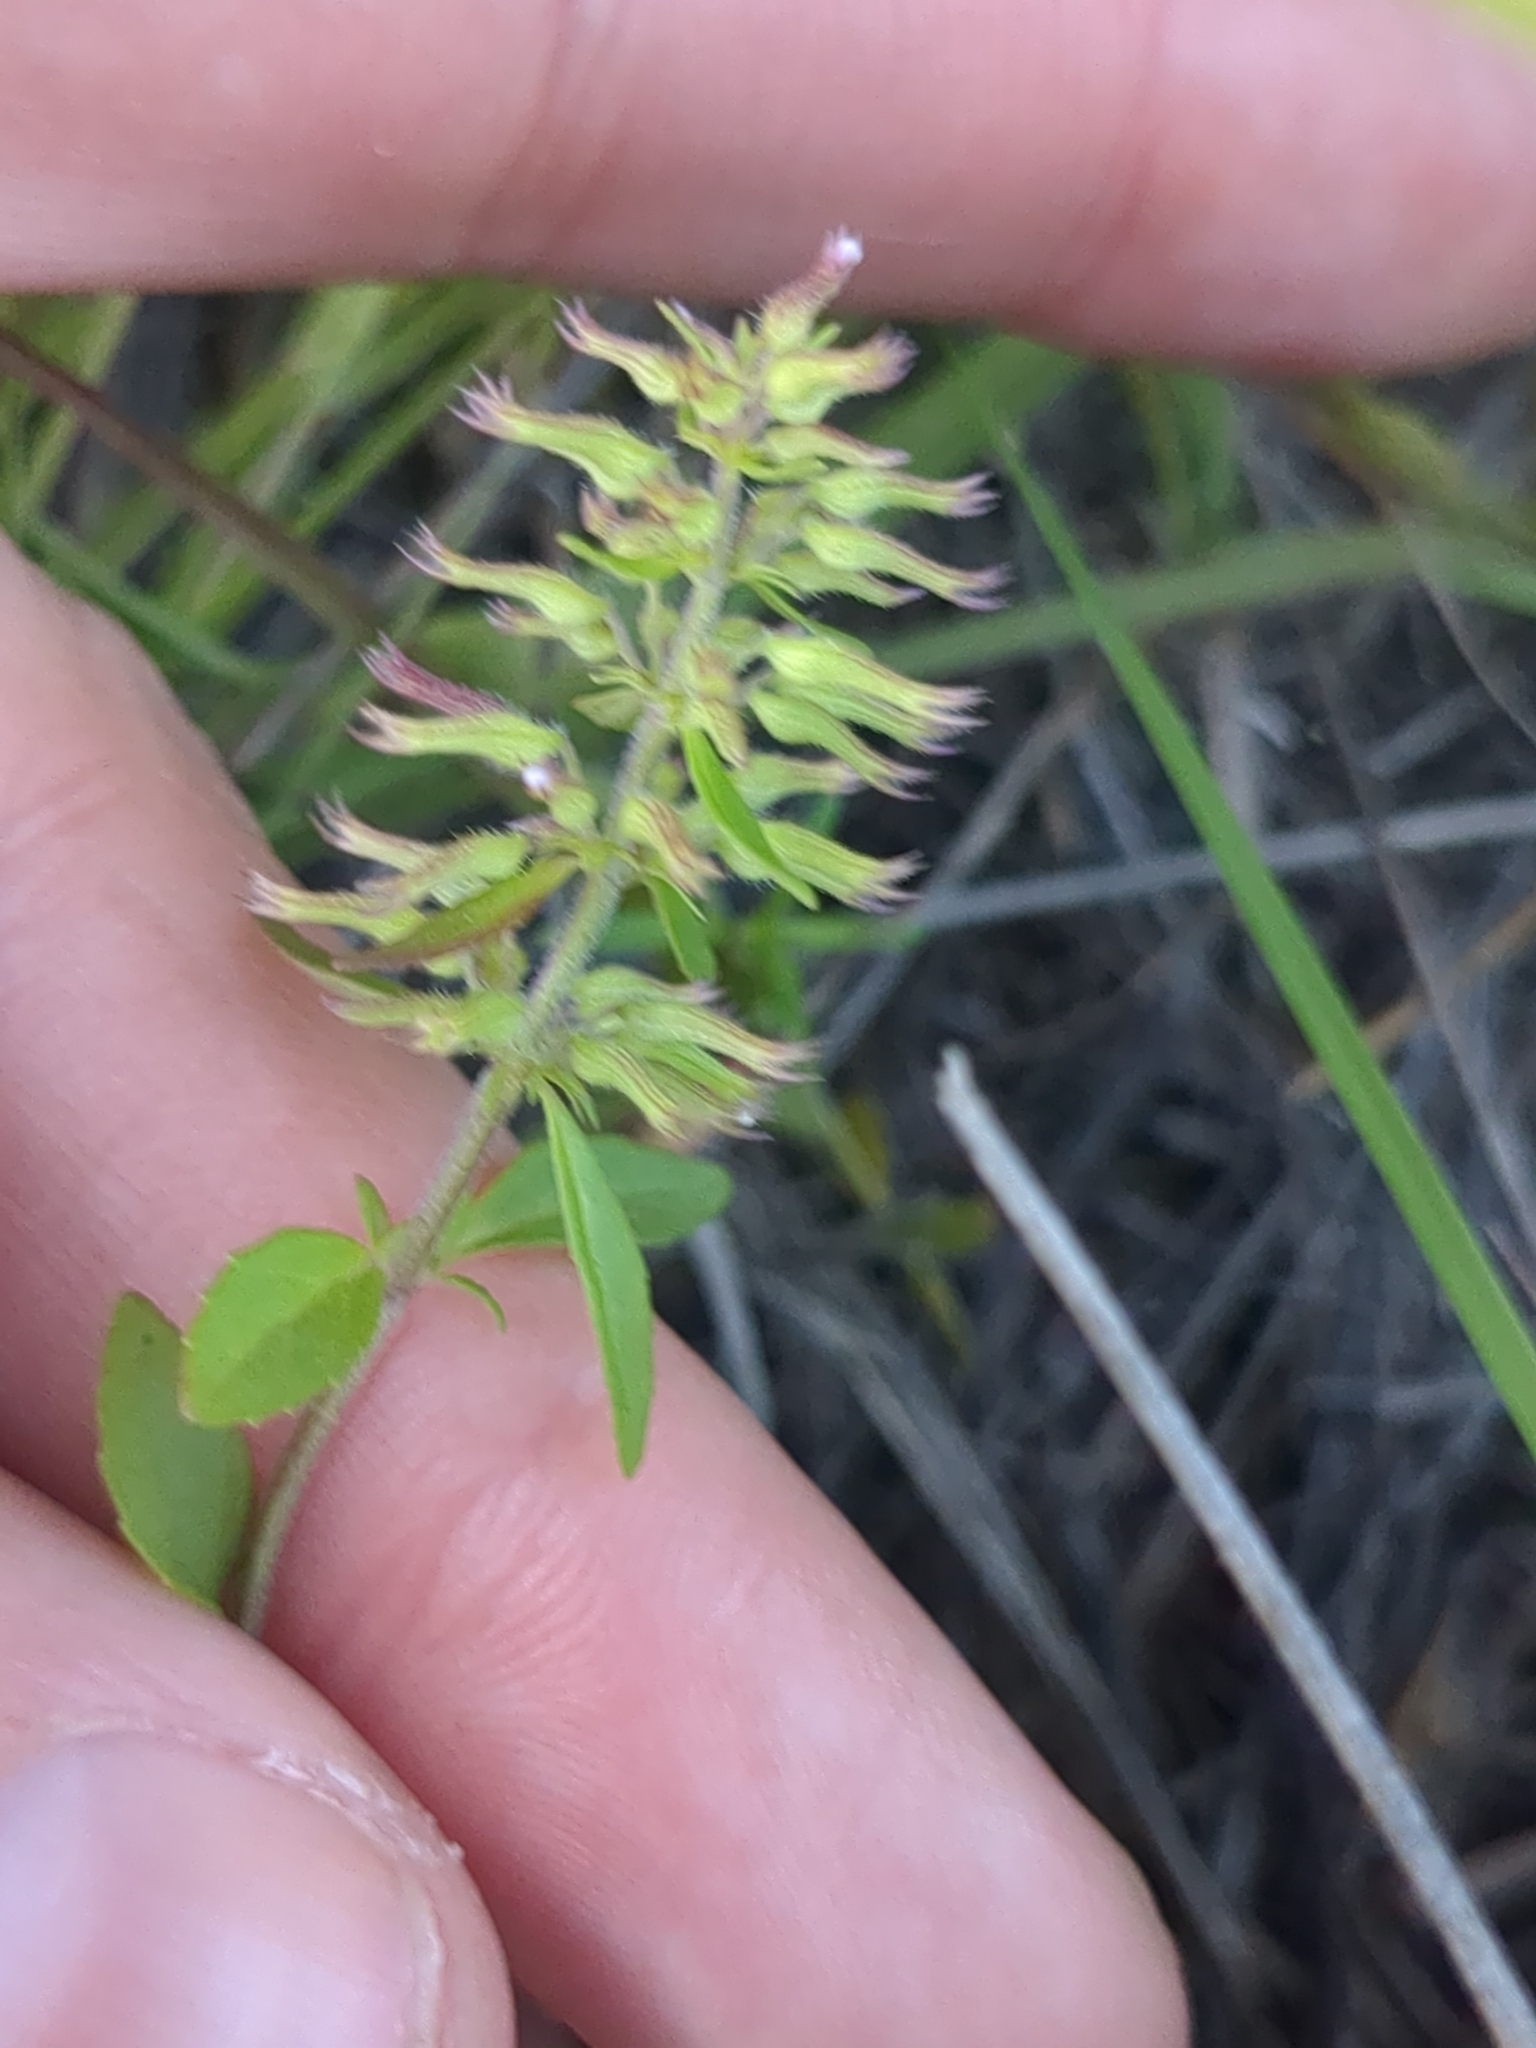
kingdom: Plantae
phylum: Tracheophyta
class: Magnoliopsida
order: Lamiales
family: Lamiaceae
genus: Hedeoma
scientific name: Hedeoma acinoides
